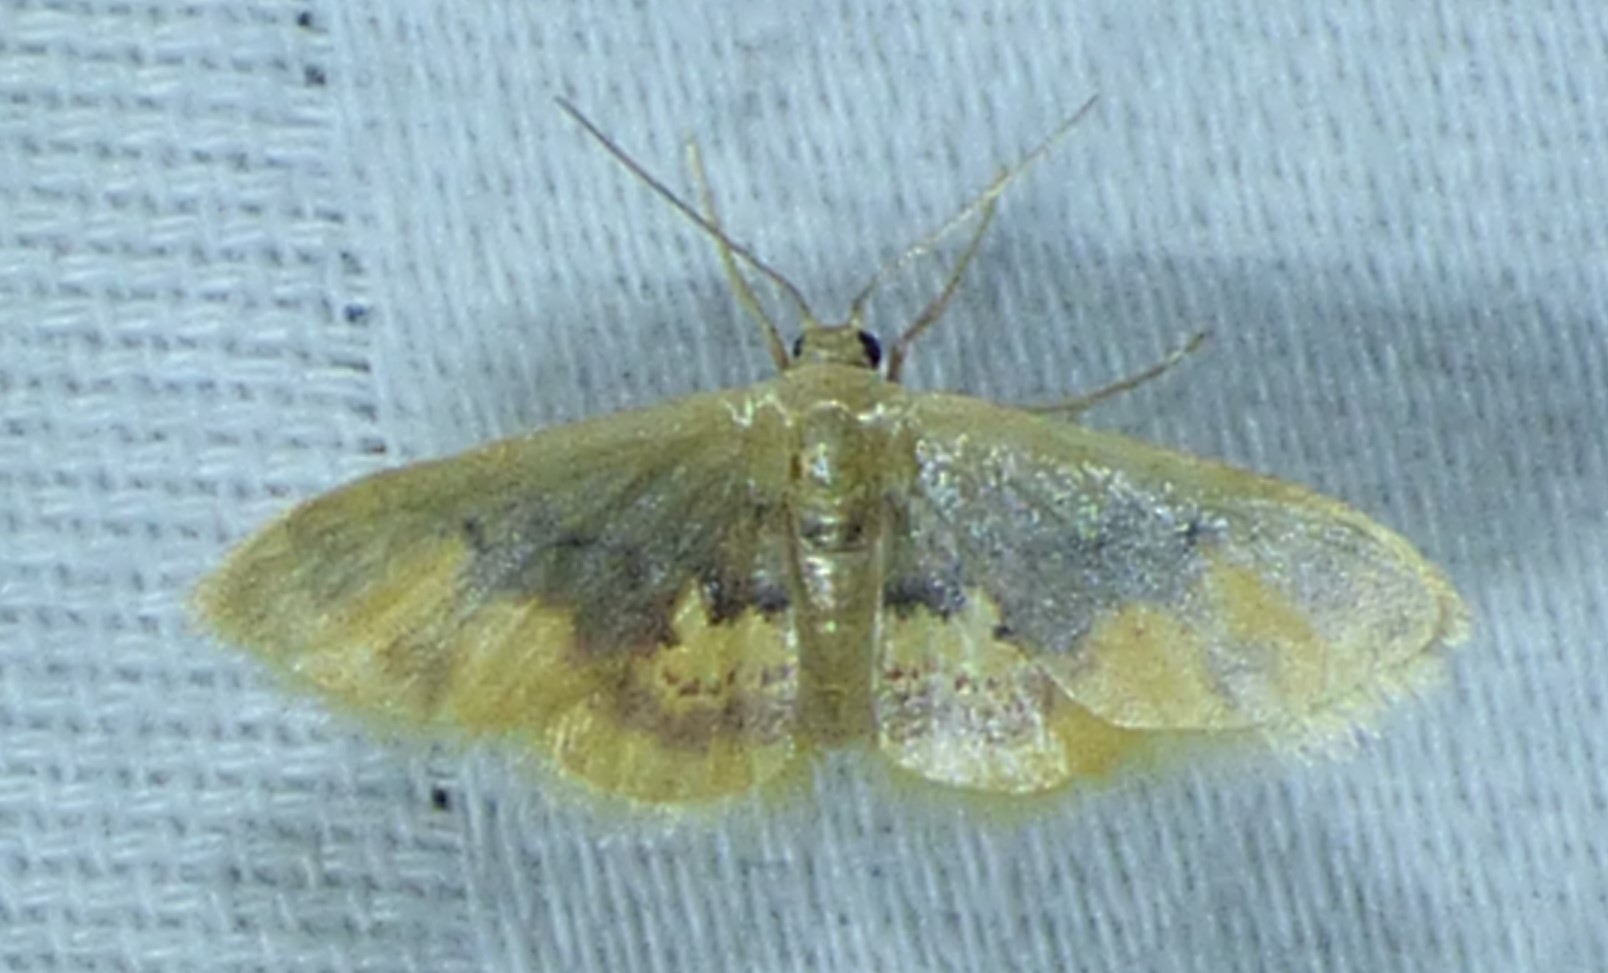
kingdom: Animalia
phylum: Arthropoda
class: Insecta
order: Lepidoptera
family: Geometridae
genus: Idaea
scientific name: Idaea scintillularia
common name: Diminutive wave
